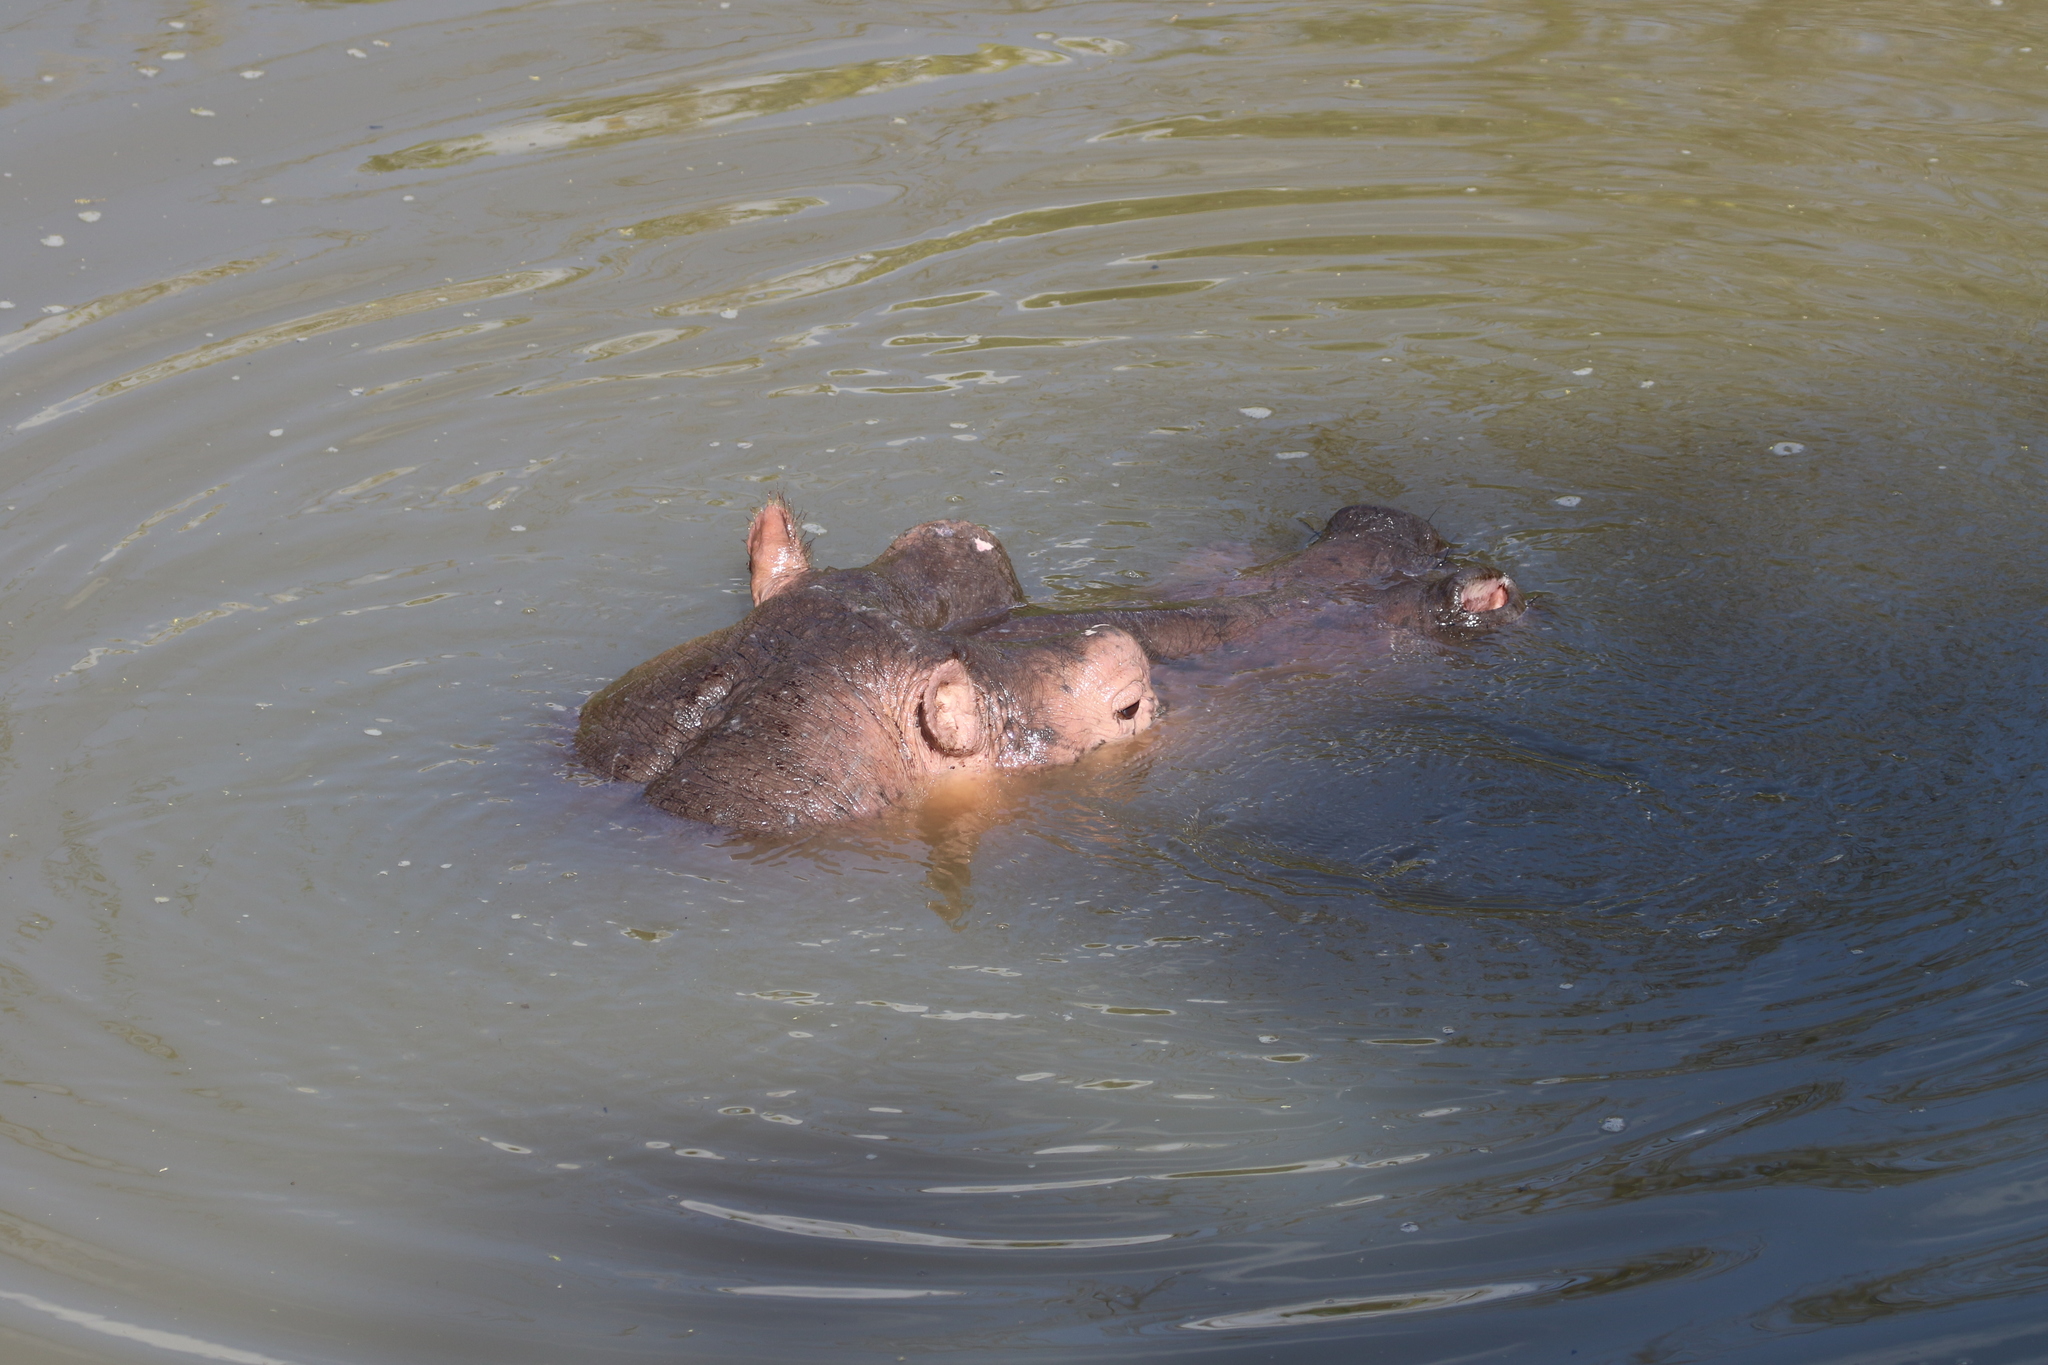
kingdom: Animalia
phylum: Chordata
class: Mammalia
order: Artiodactyla
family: Hippopotamidae
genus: Hippopotamus
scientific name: Hippopotamus amphibius
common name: Common hippopotamus
